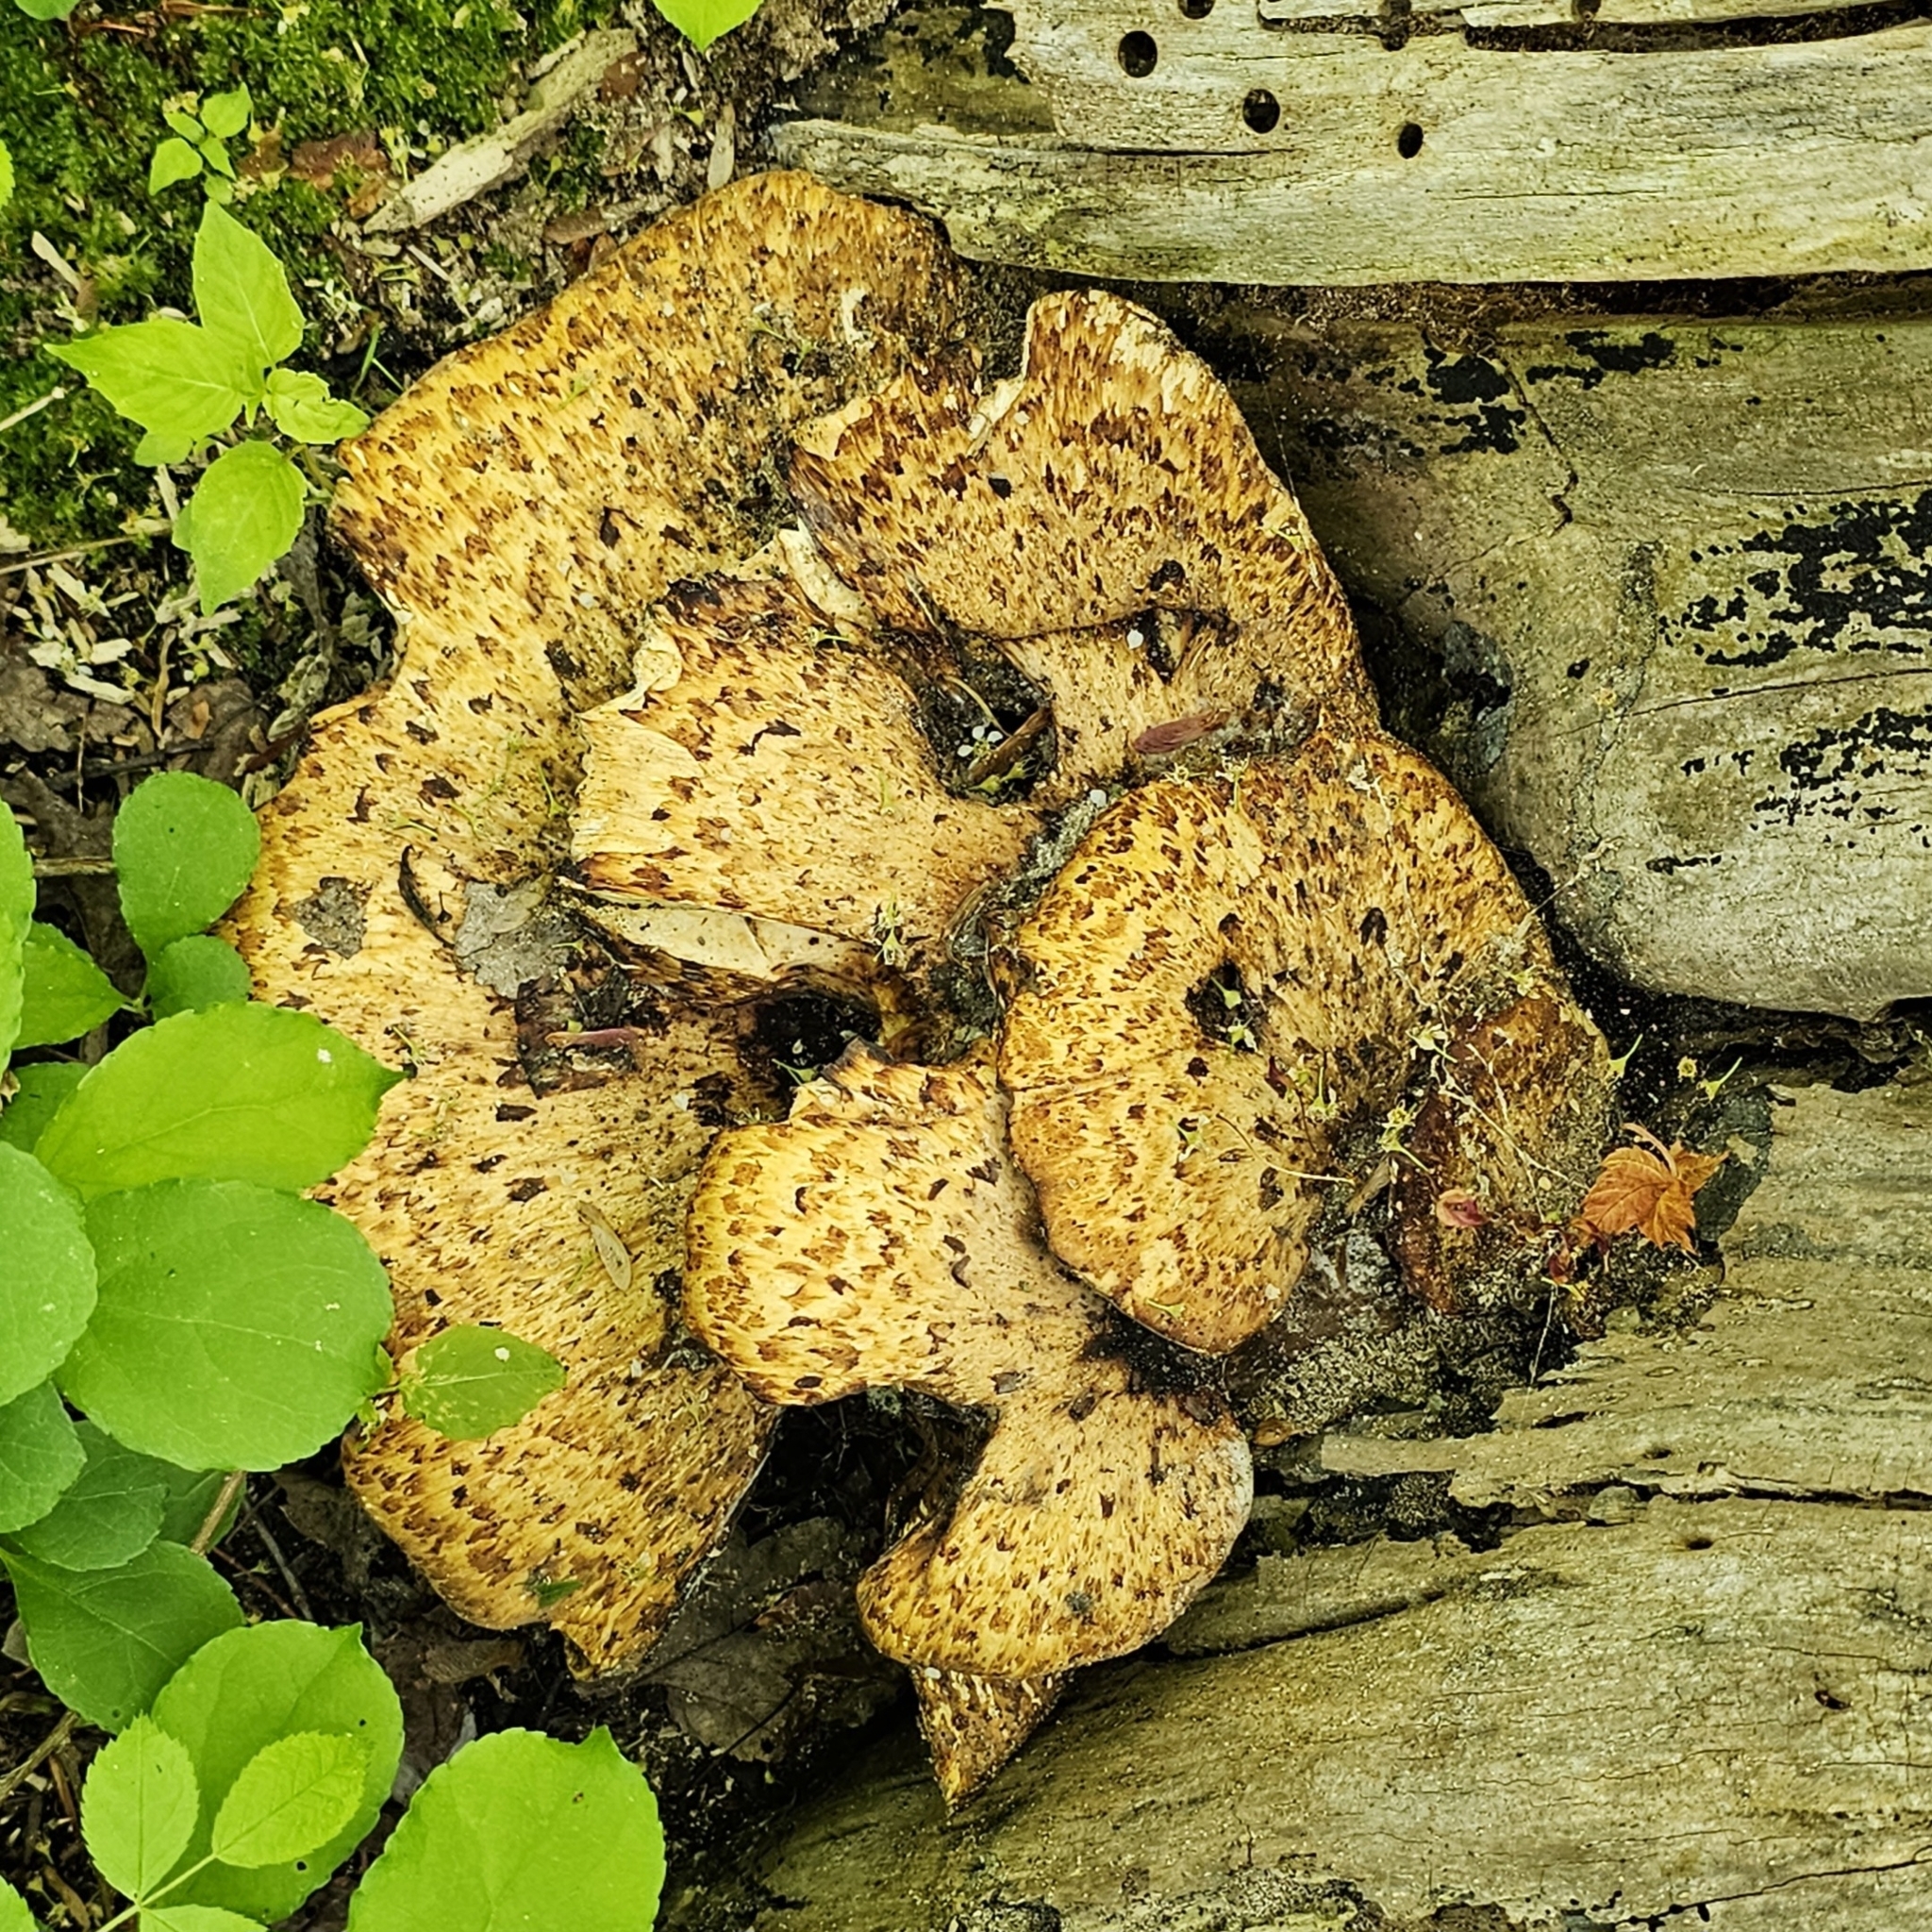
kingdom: Fungi
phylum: Basidiomycota
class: Agaricomycetes
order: Polyporales
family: Polyporaceae
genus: Cerioporus
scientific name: Cerioporus squamosus
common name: Dryad's saddle
